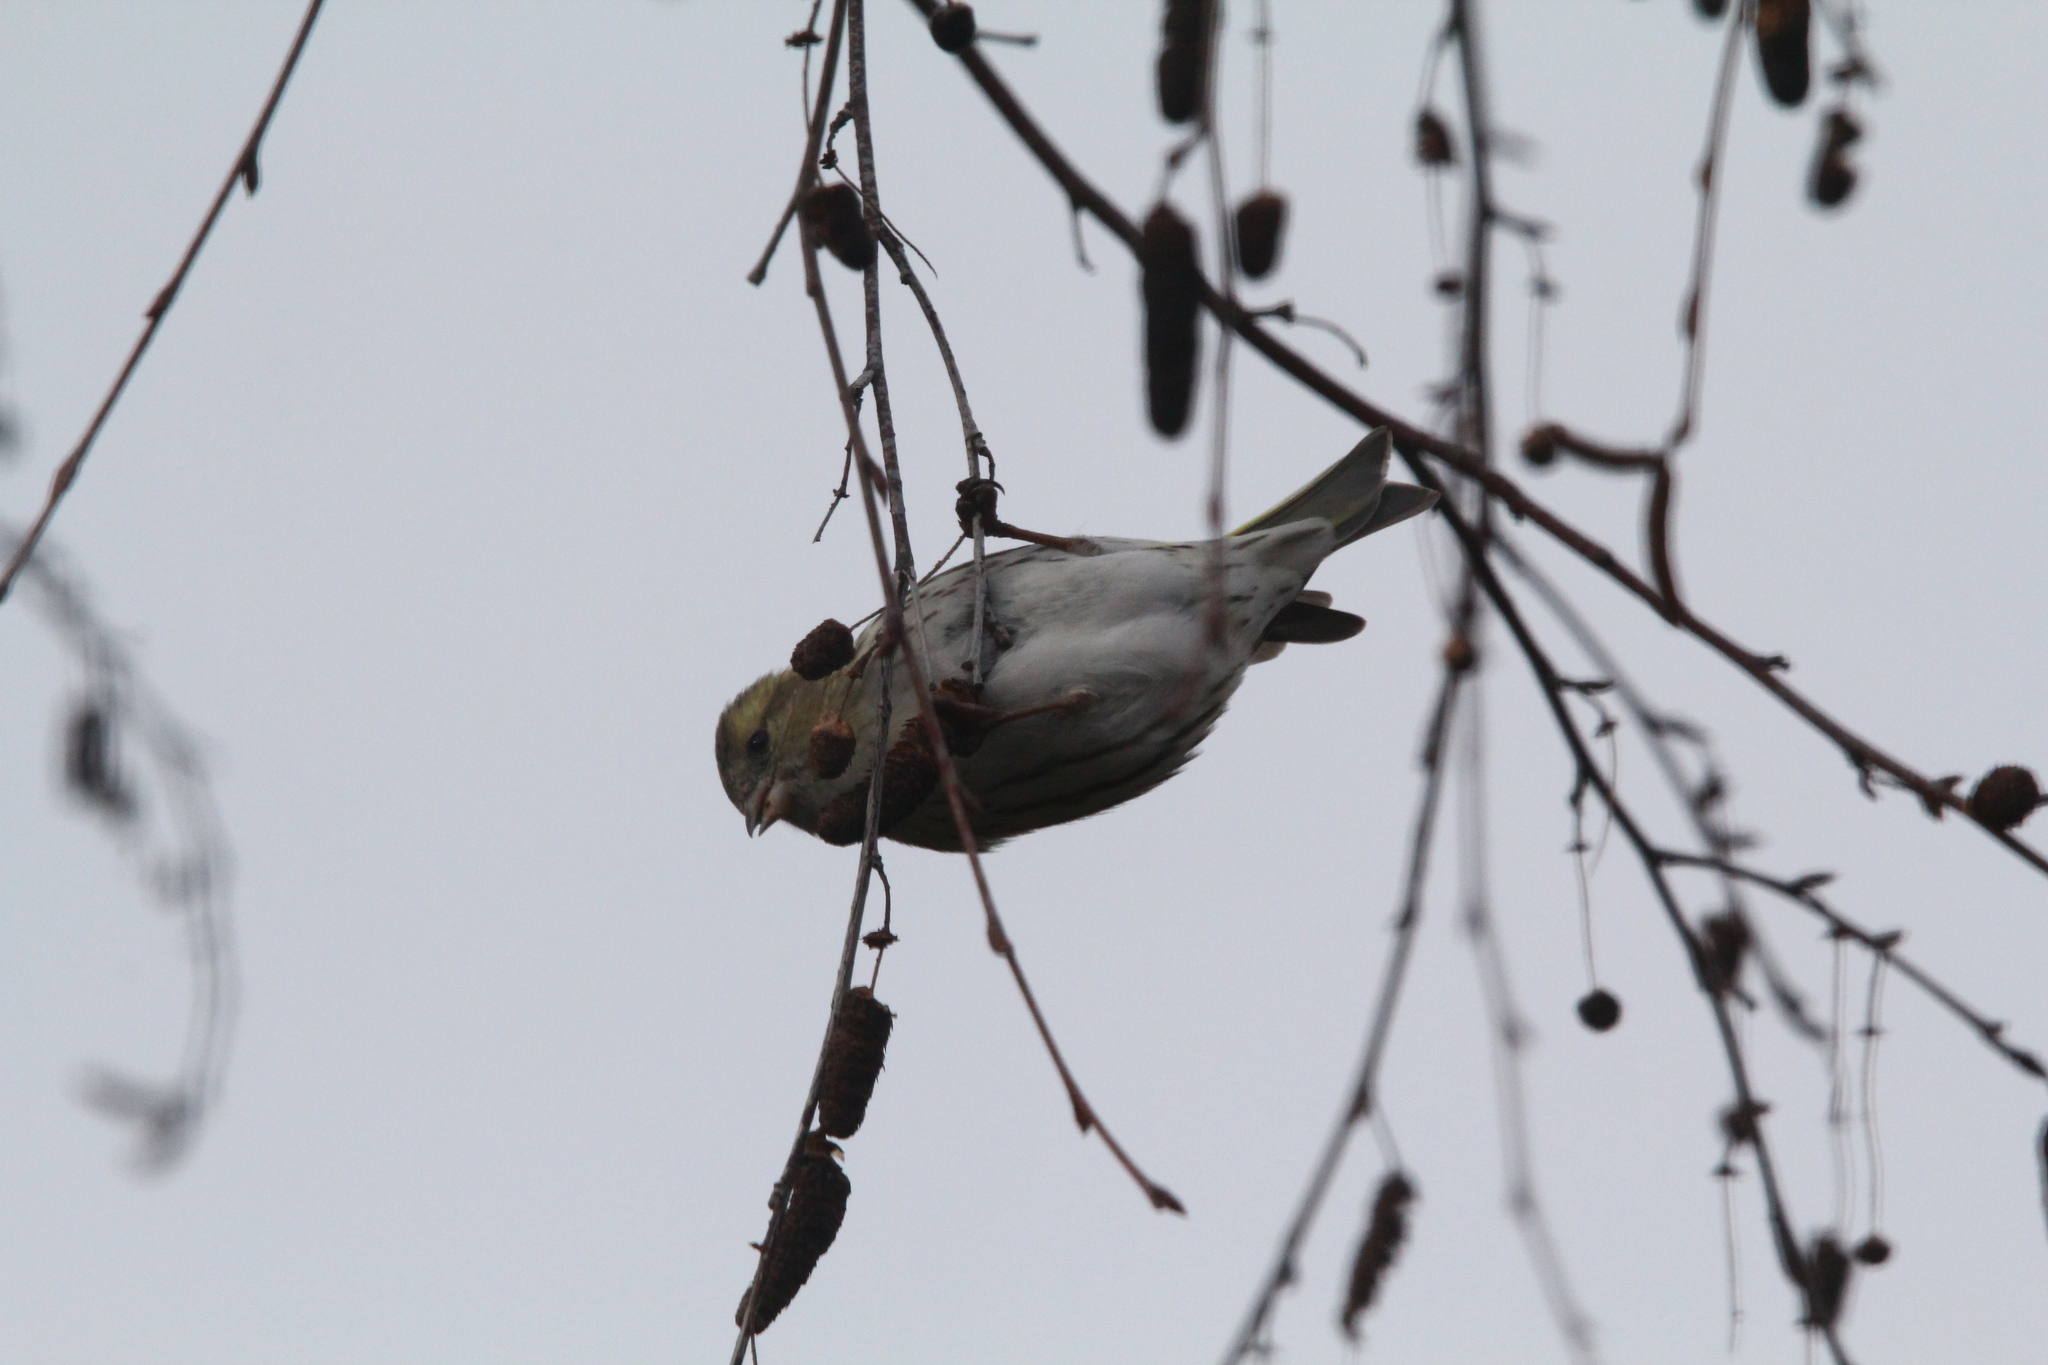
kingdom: Animalia
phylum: Chordata
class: Aves
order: Passeriformes
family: Fringillidae
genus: Spinus
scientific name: Spinus spinus
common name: Eurasian siskin
